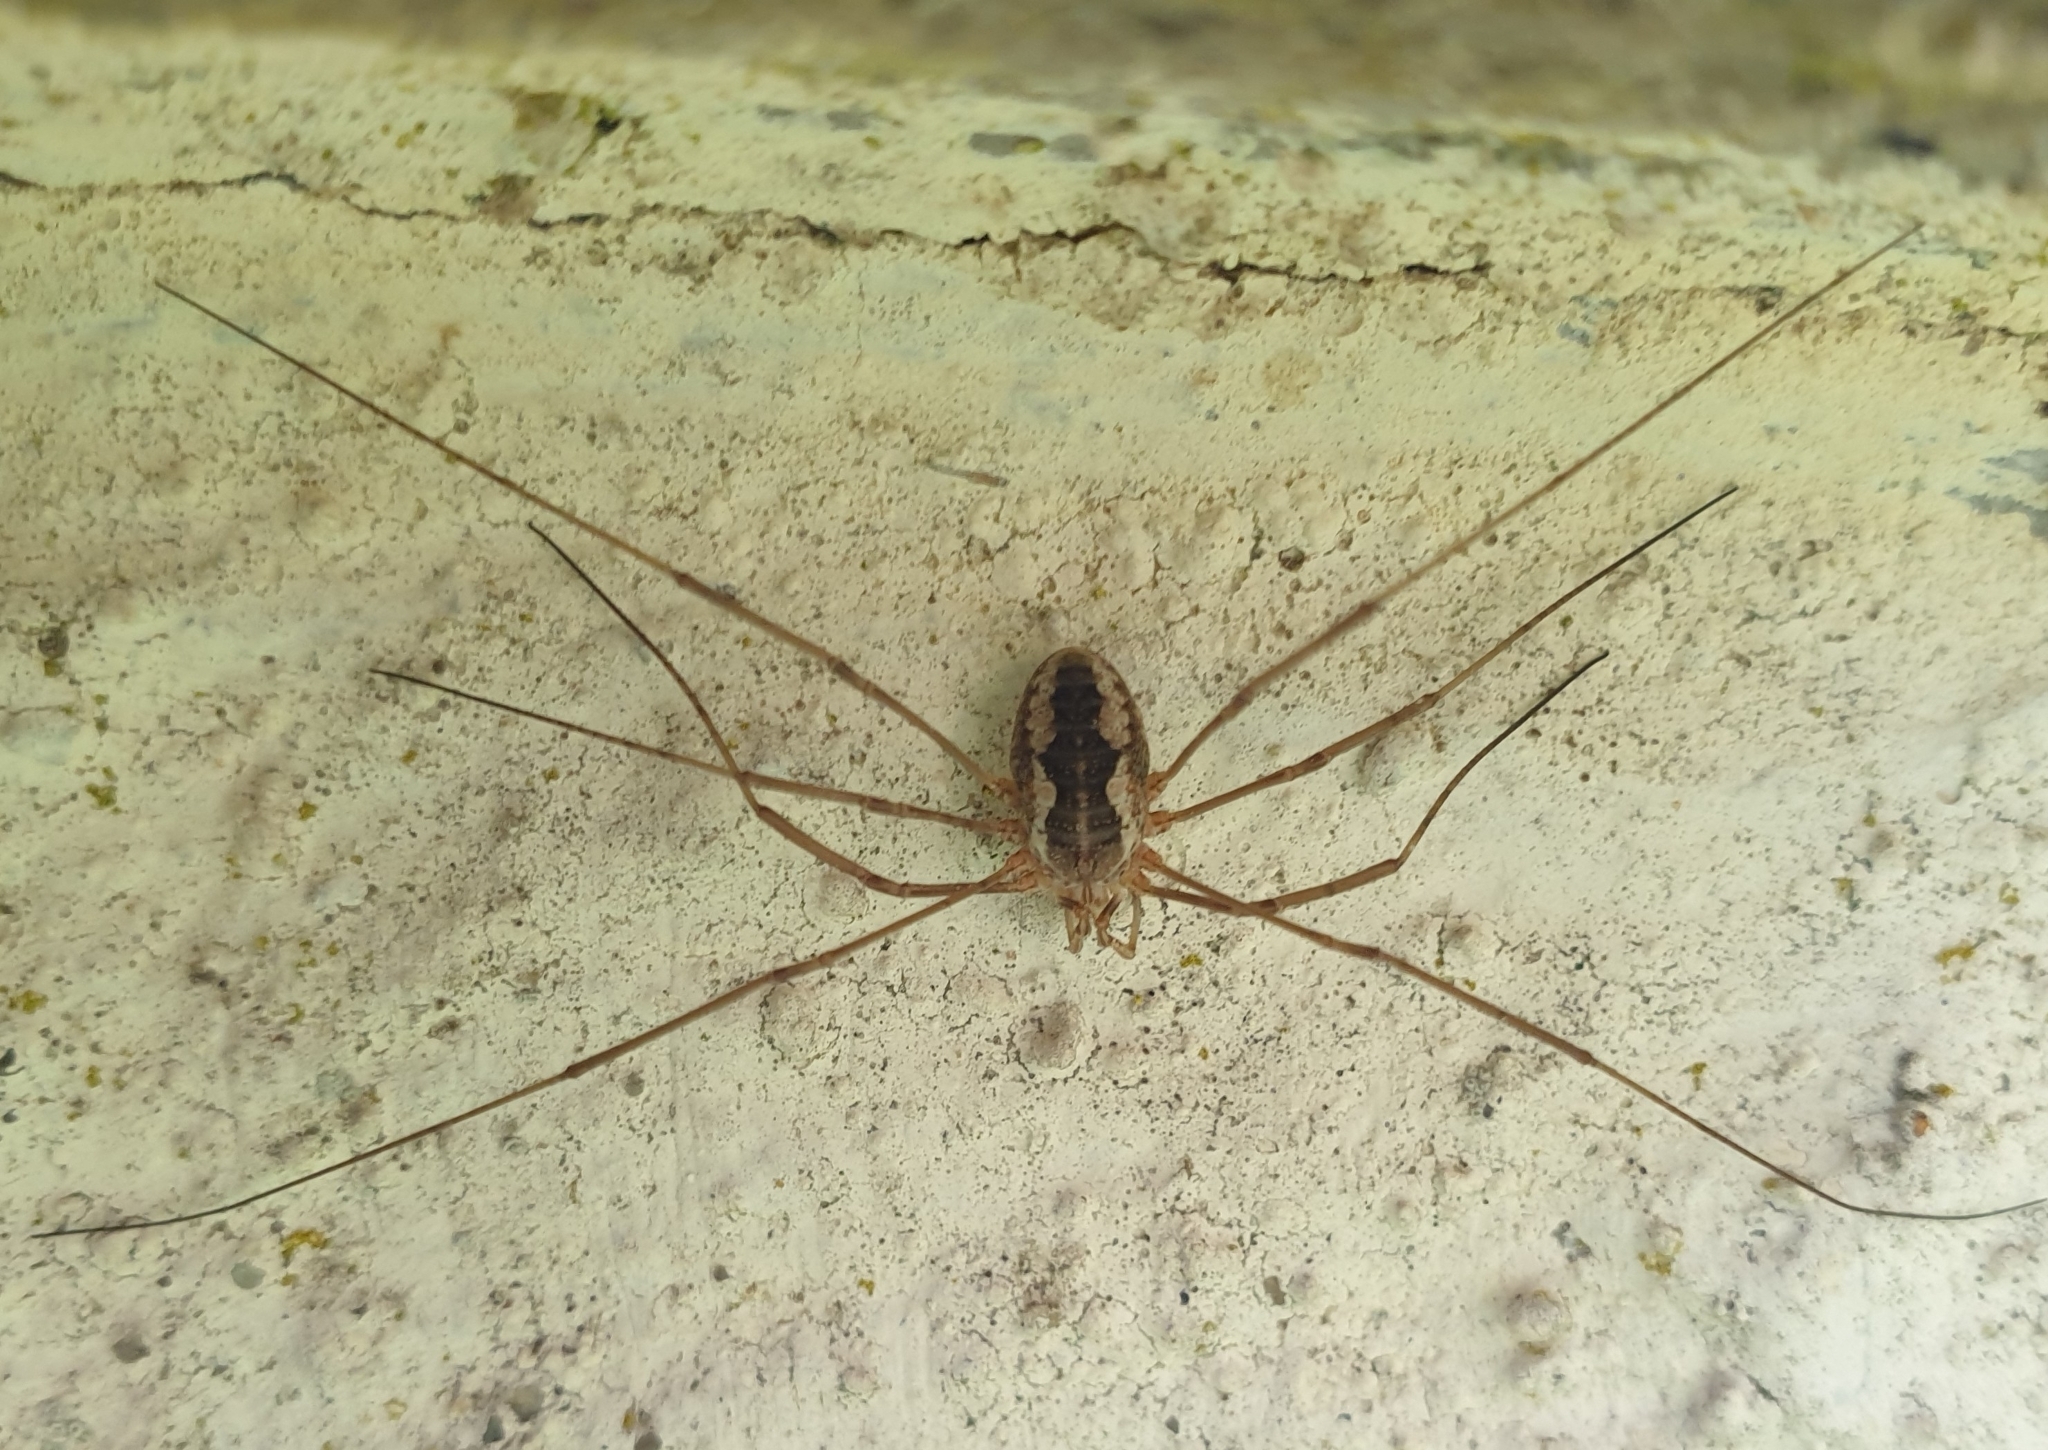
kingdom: Animalia
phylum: Arthropoda
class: Arachnida
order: Opiliones
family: Phalangiidae
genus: Phalangium
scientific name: Phalangium opilio
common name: Daddy longleg
